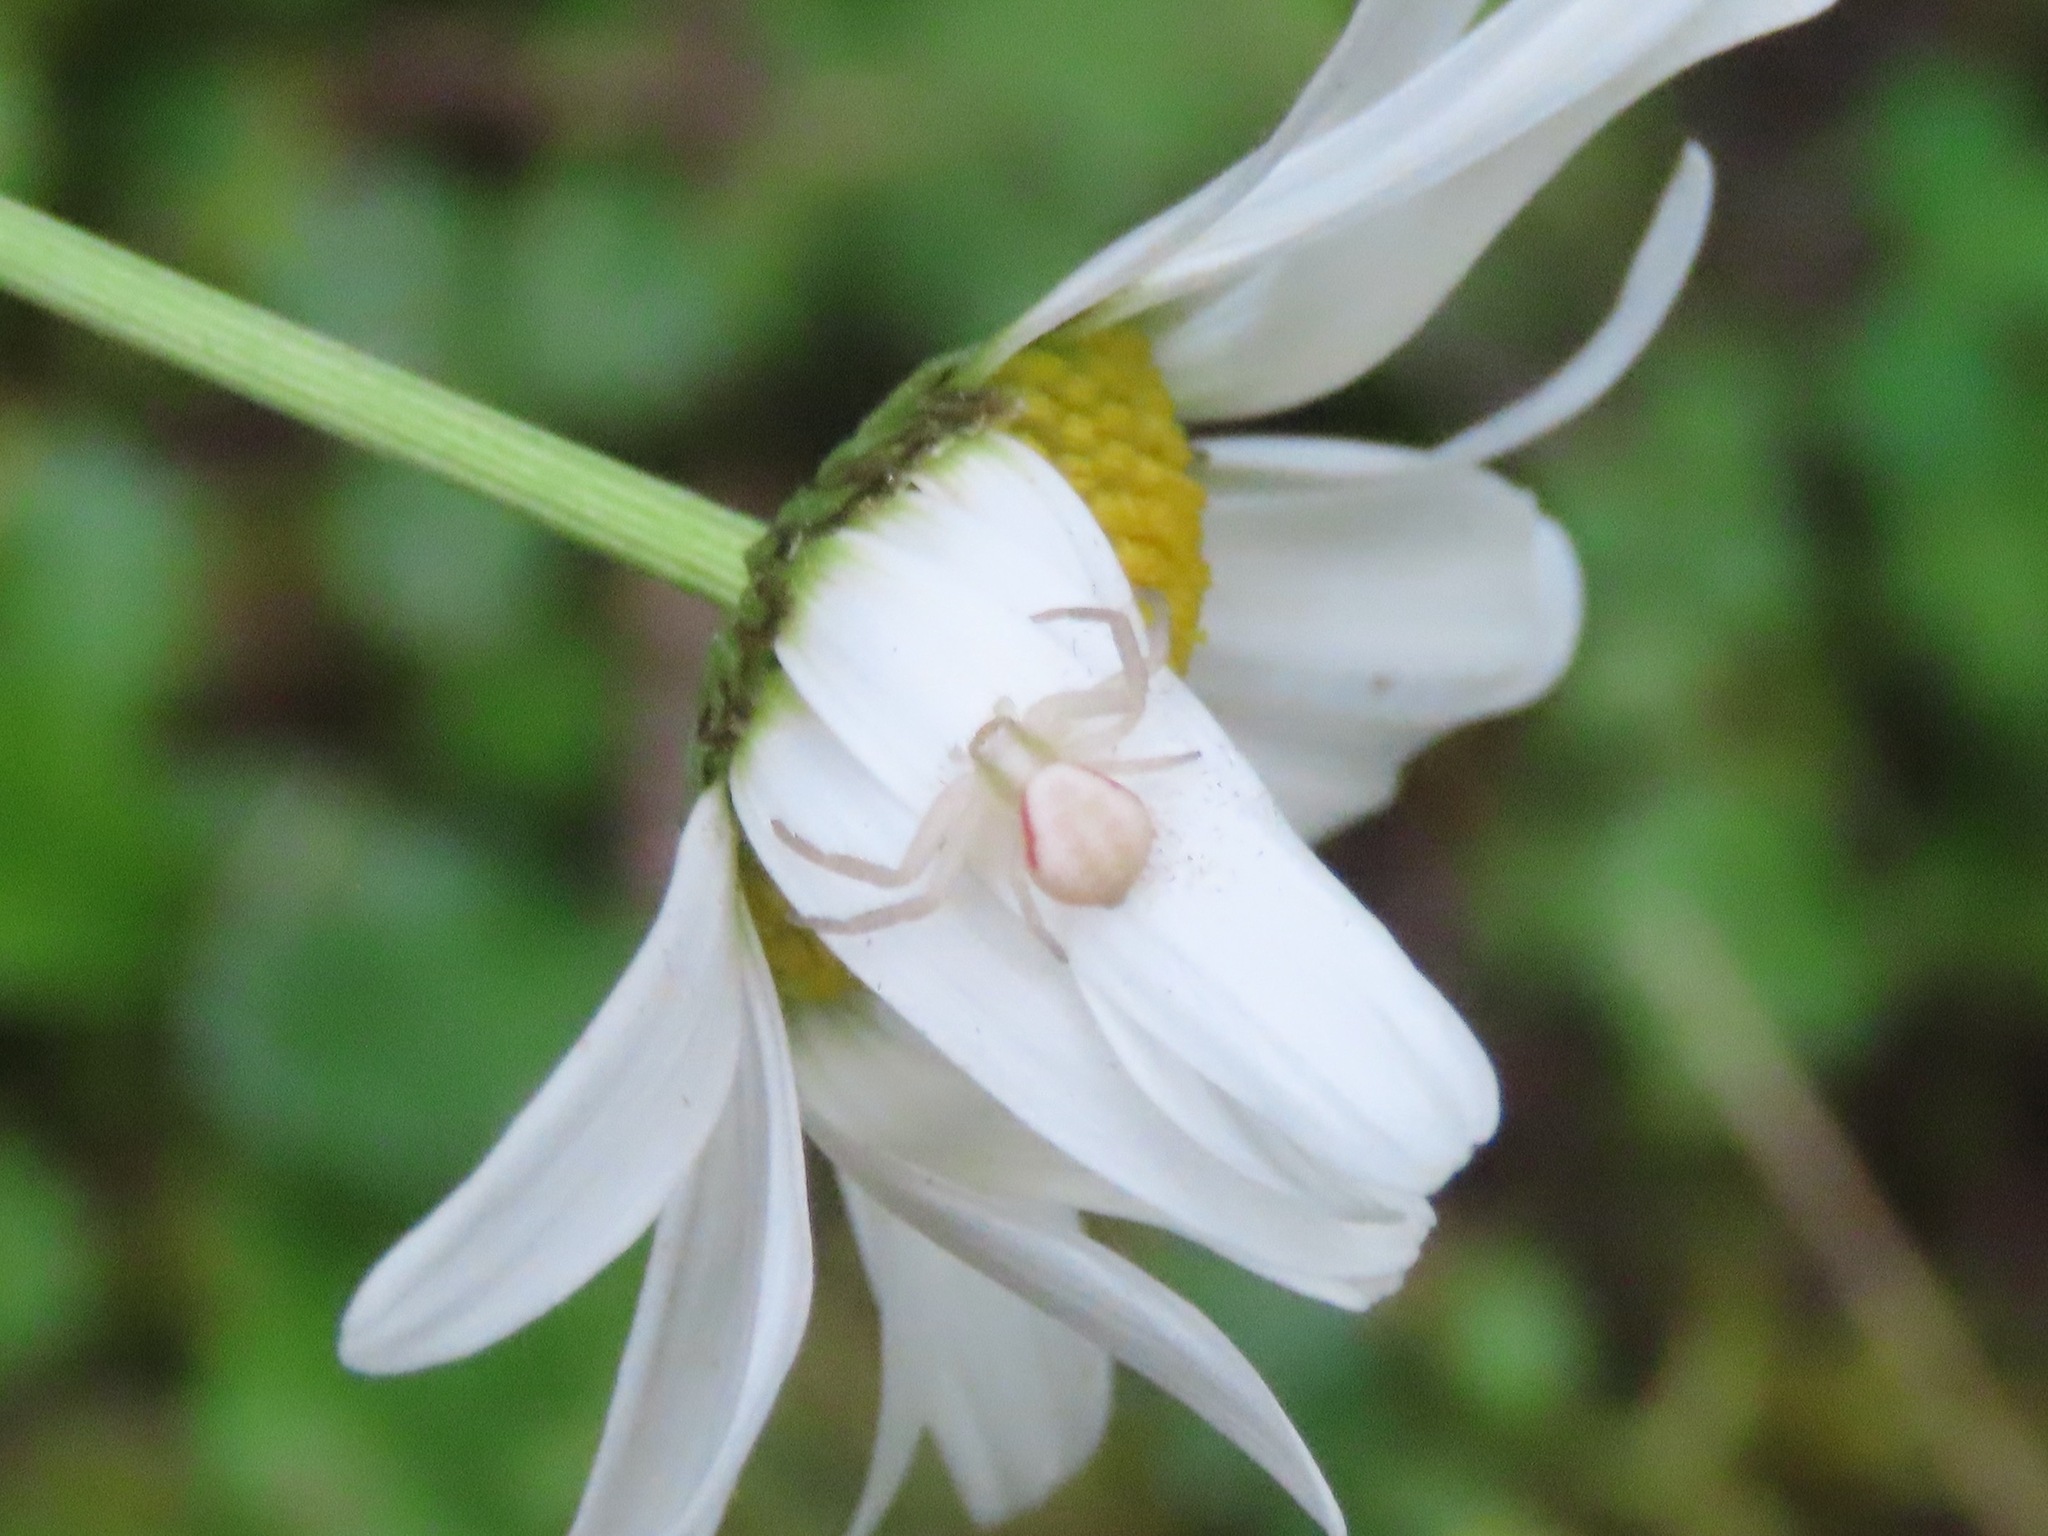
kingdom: Animalia
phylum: Arthropoda
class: Arachnida
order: Araneae
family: Thomisidae
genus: Misumena
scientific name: Misumena vatia
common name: Goldenrod crab spider
